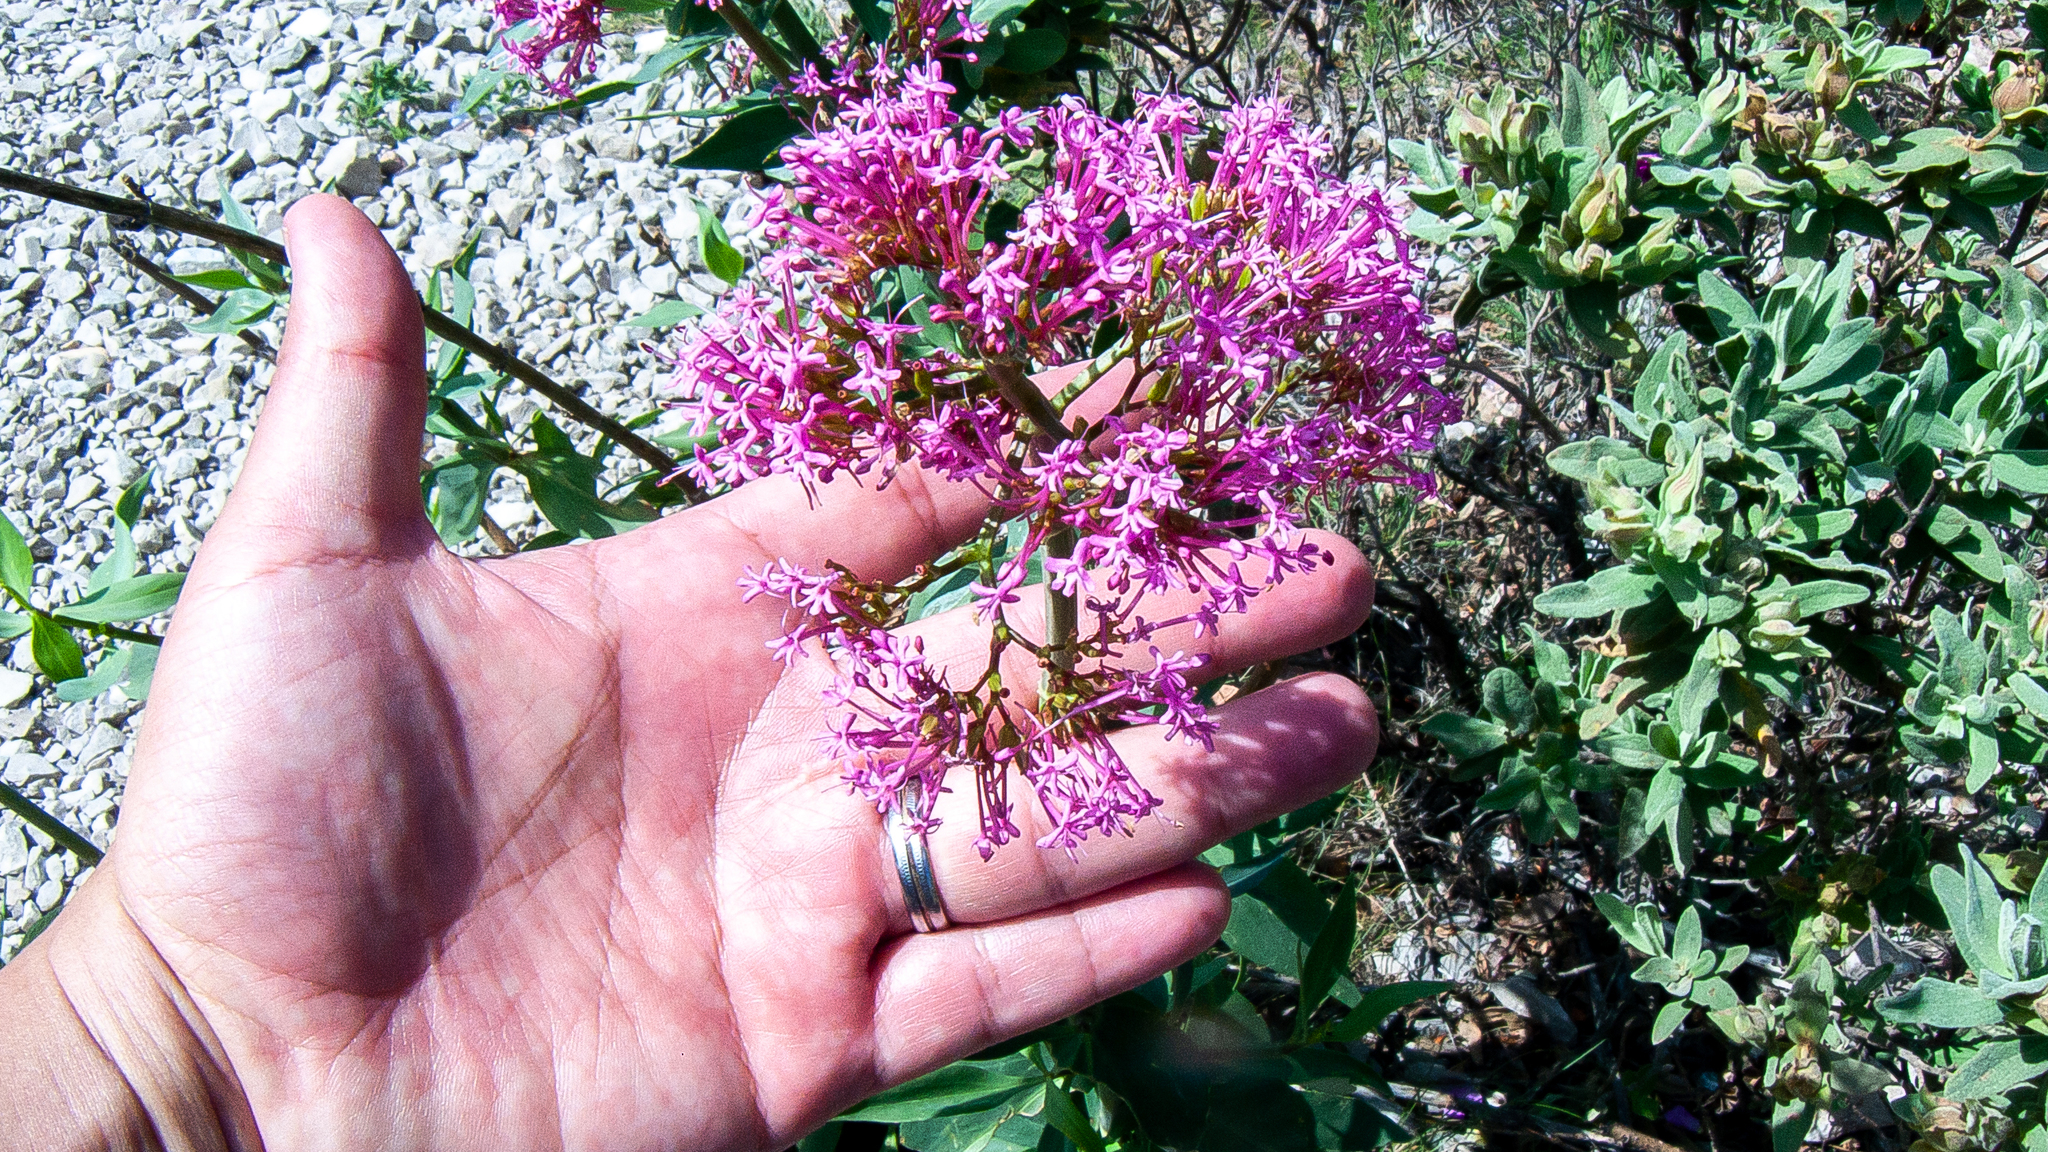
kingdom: Plantae
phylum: Tracheophyta
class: Magnoliopsida
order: Dipsacales
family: Caprifoliaceae
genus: Centranthus
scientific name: Centranthus ruber
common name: Red valerian
